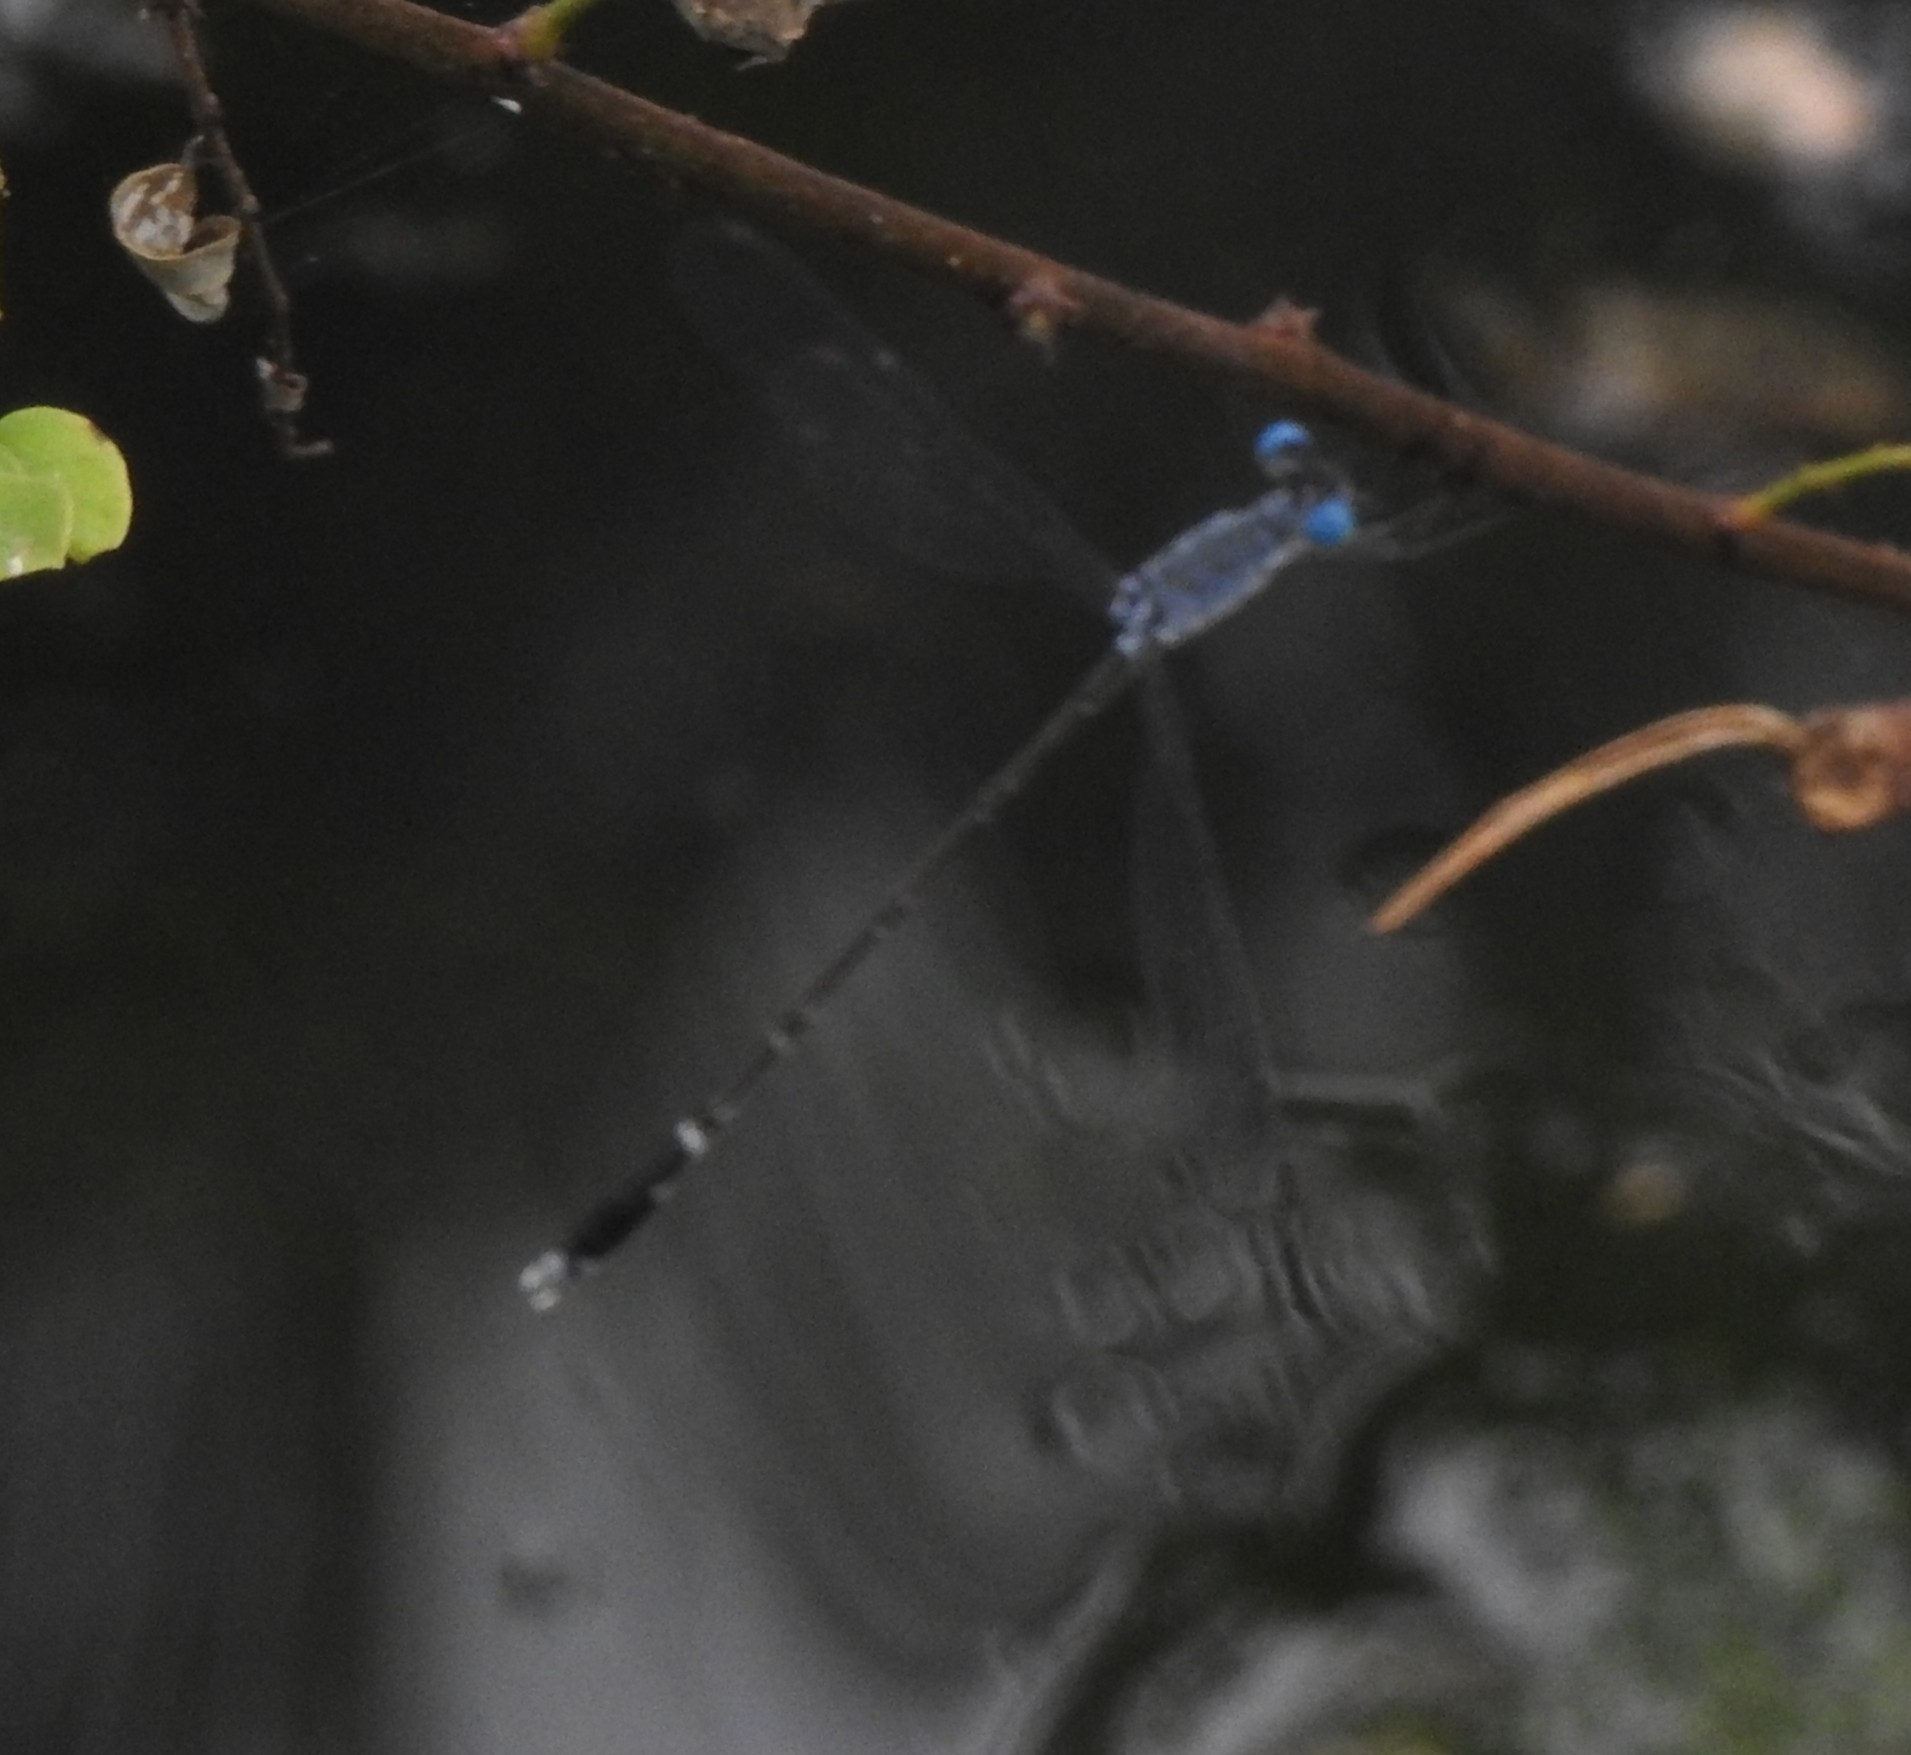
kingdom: Animalia
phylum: Arthropoda
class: Insecta
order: Odonata
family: Lestidae
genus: Lestes
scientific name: Lestes praemorsus
